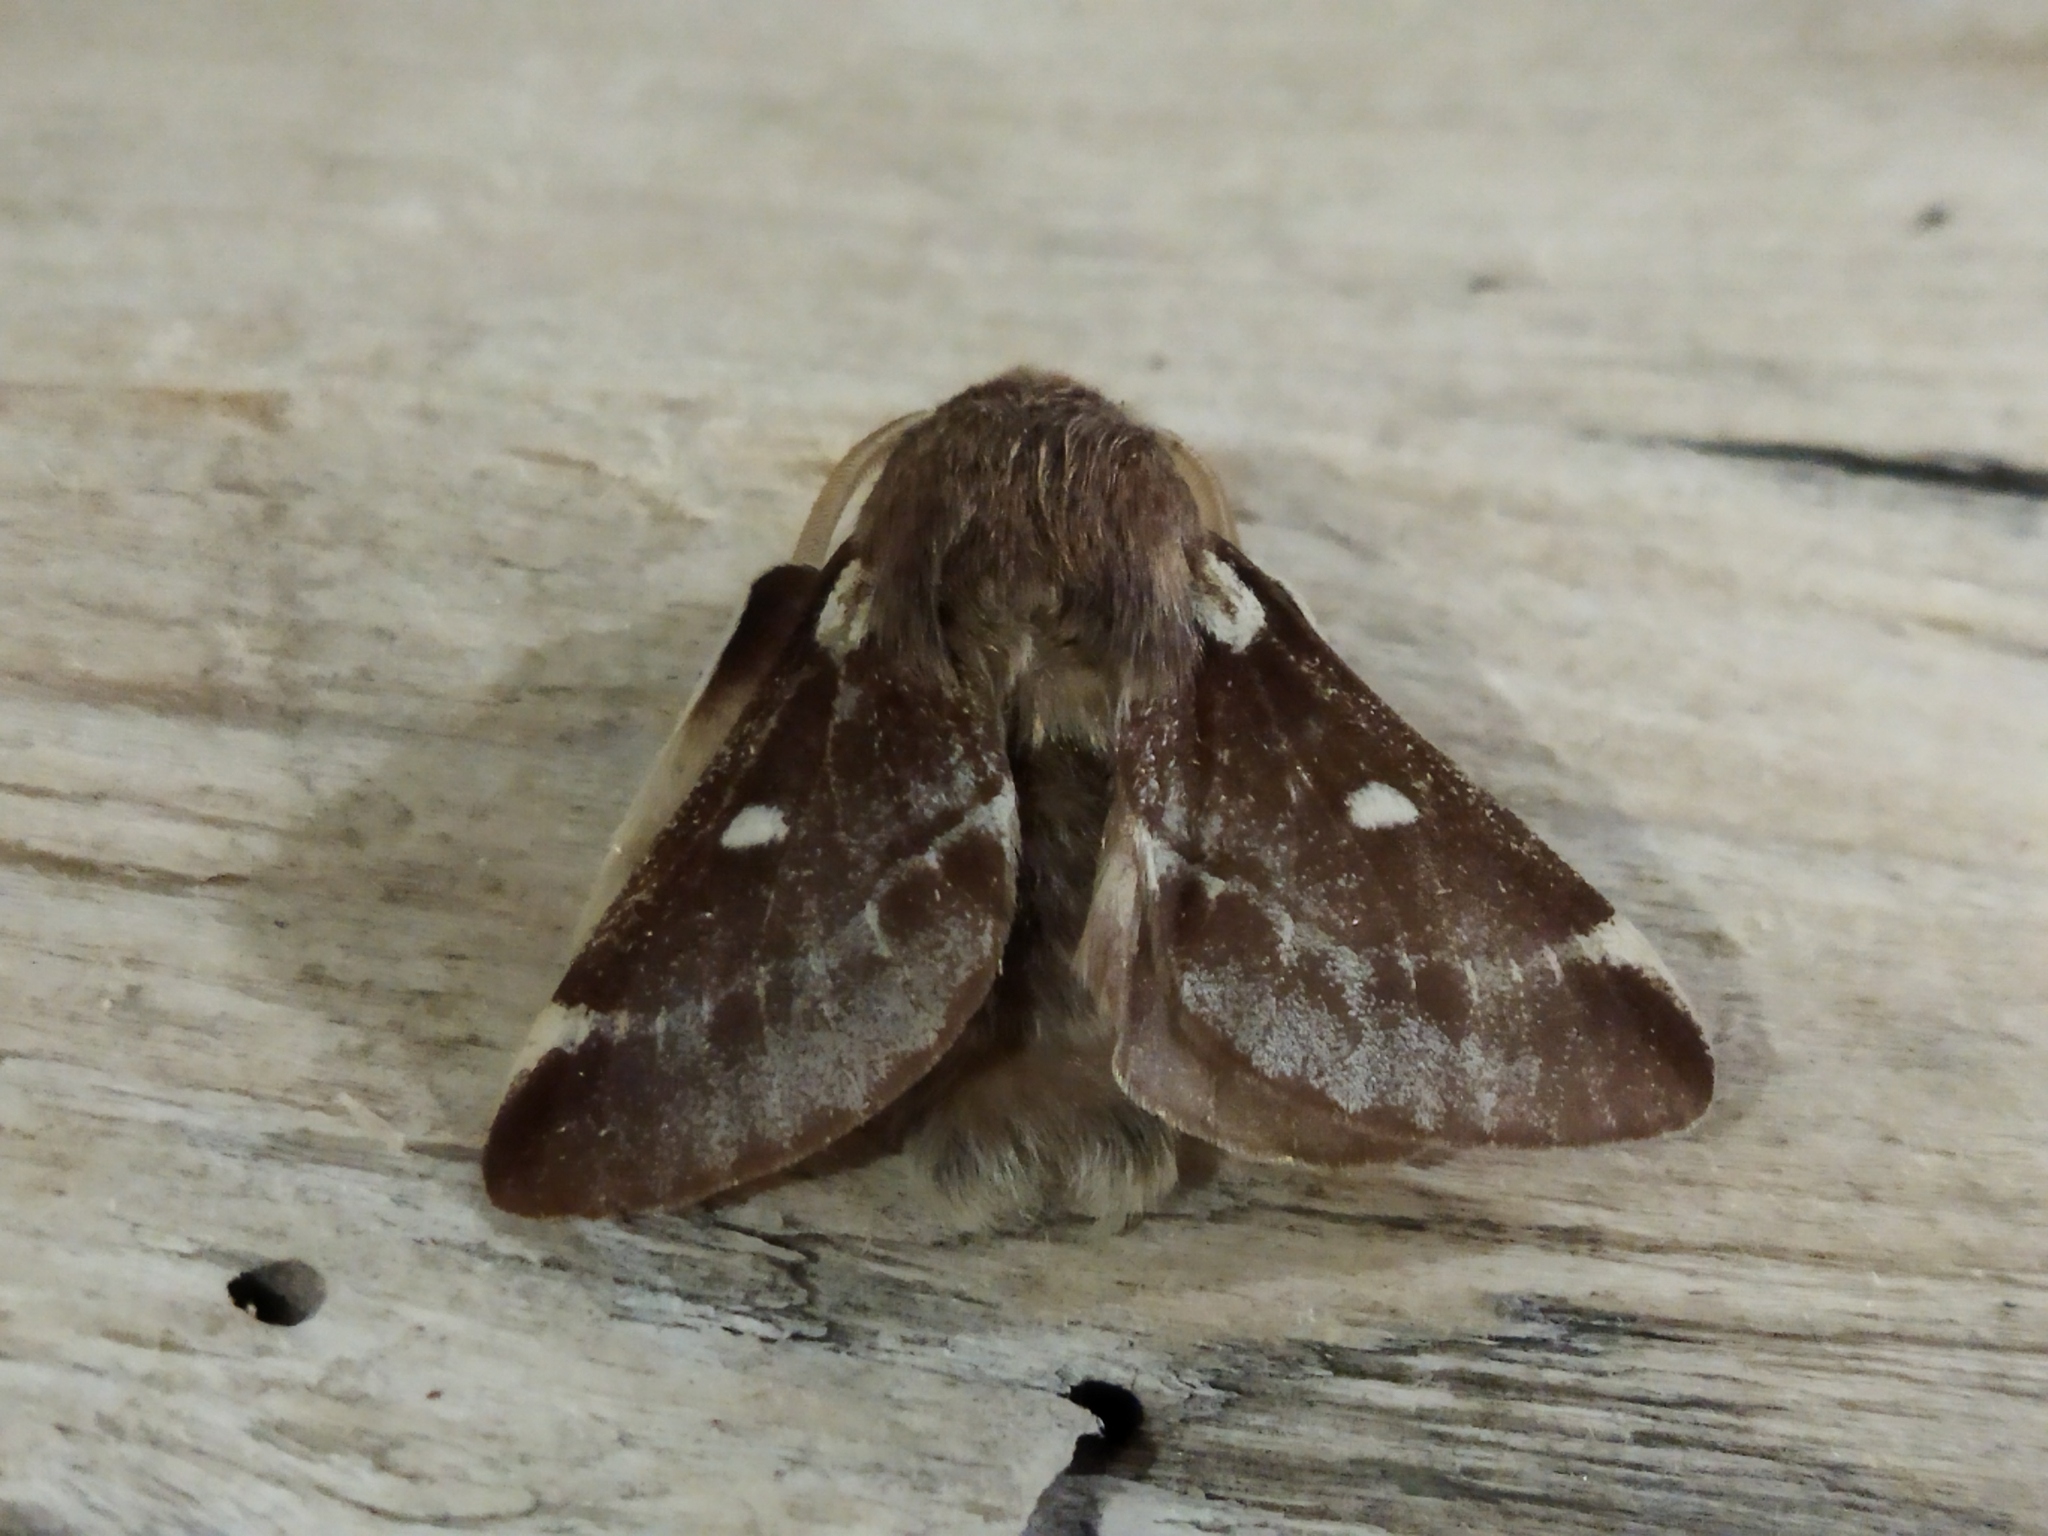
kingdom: Animalia
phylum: Arthropoda
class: Insecta
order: Lepidoptera
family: Lasiocampidae
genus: Eriogaster
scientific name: Eriogaster lanestris
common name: Small eggar
